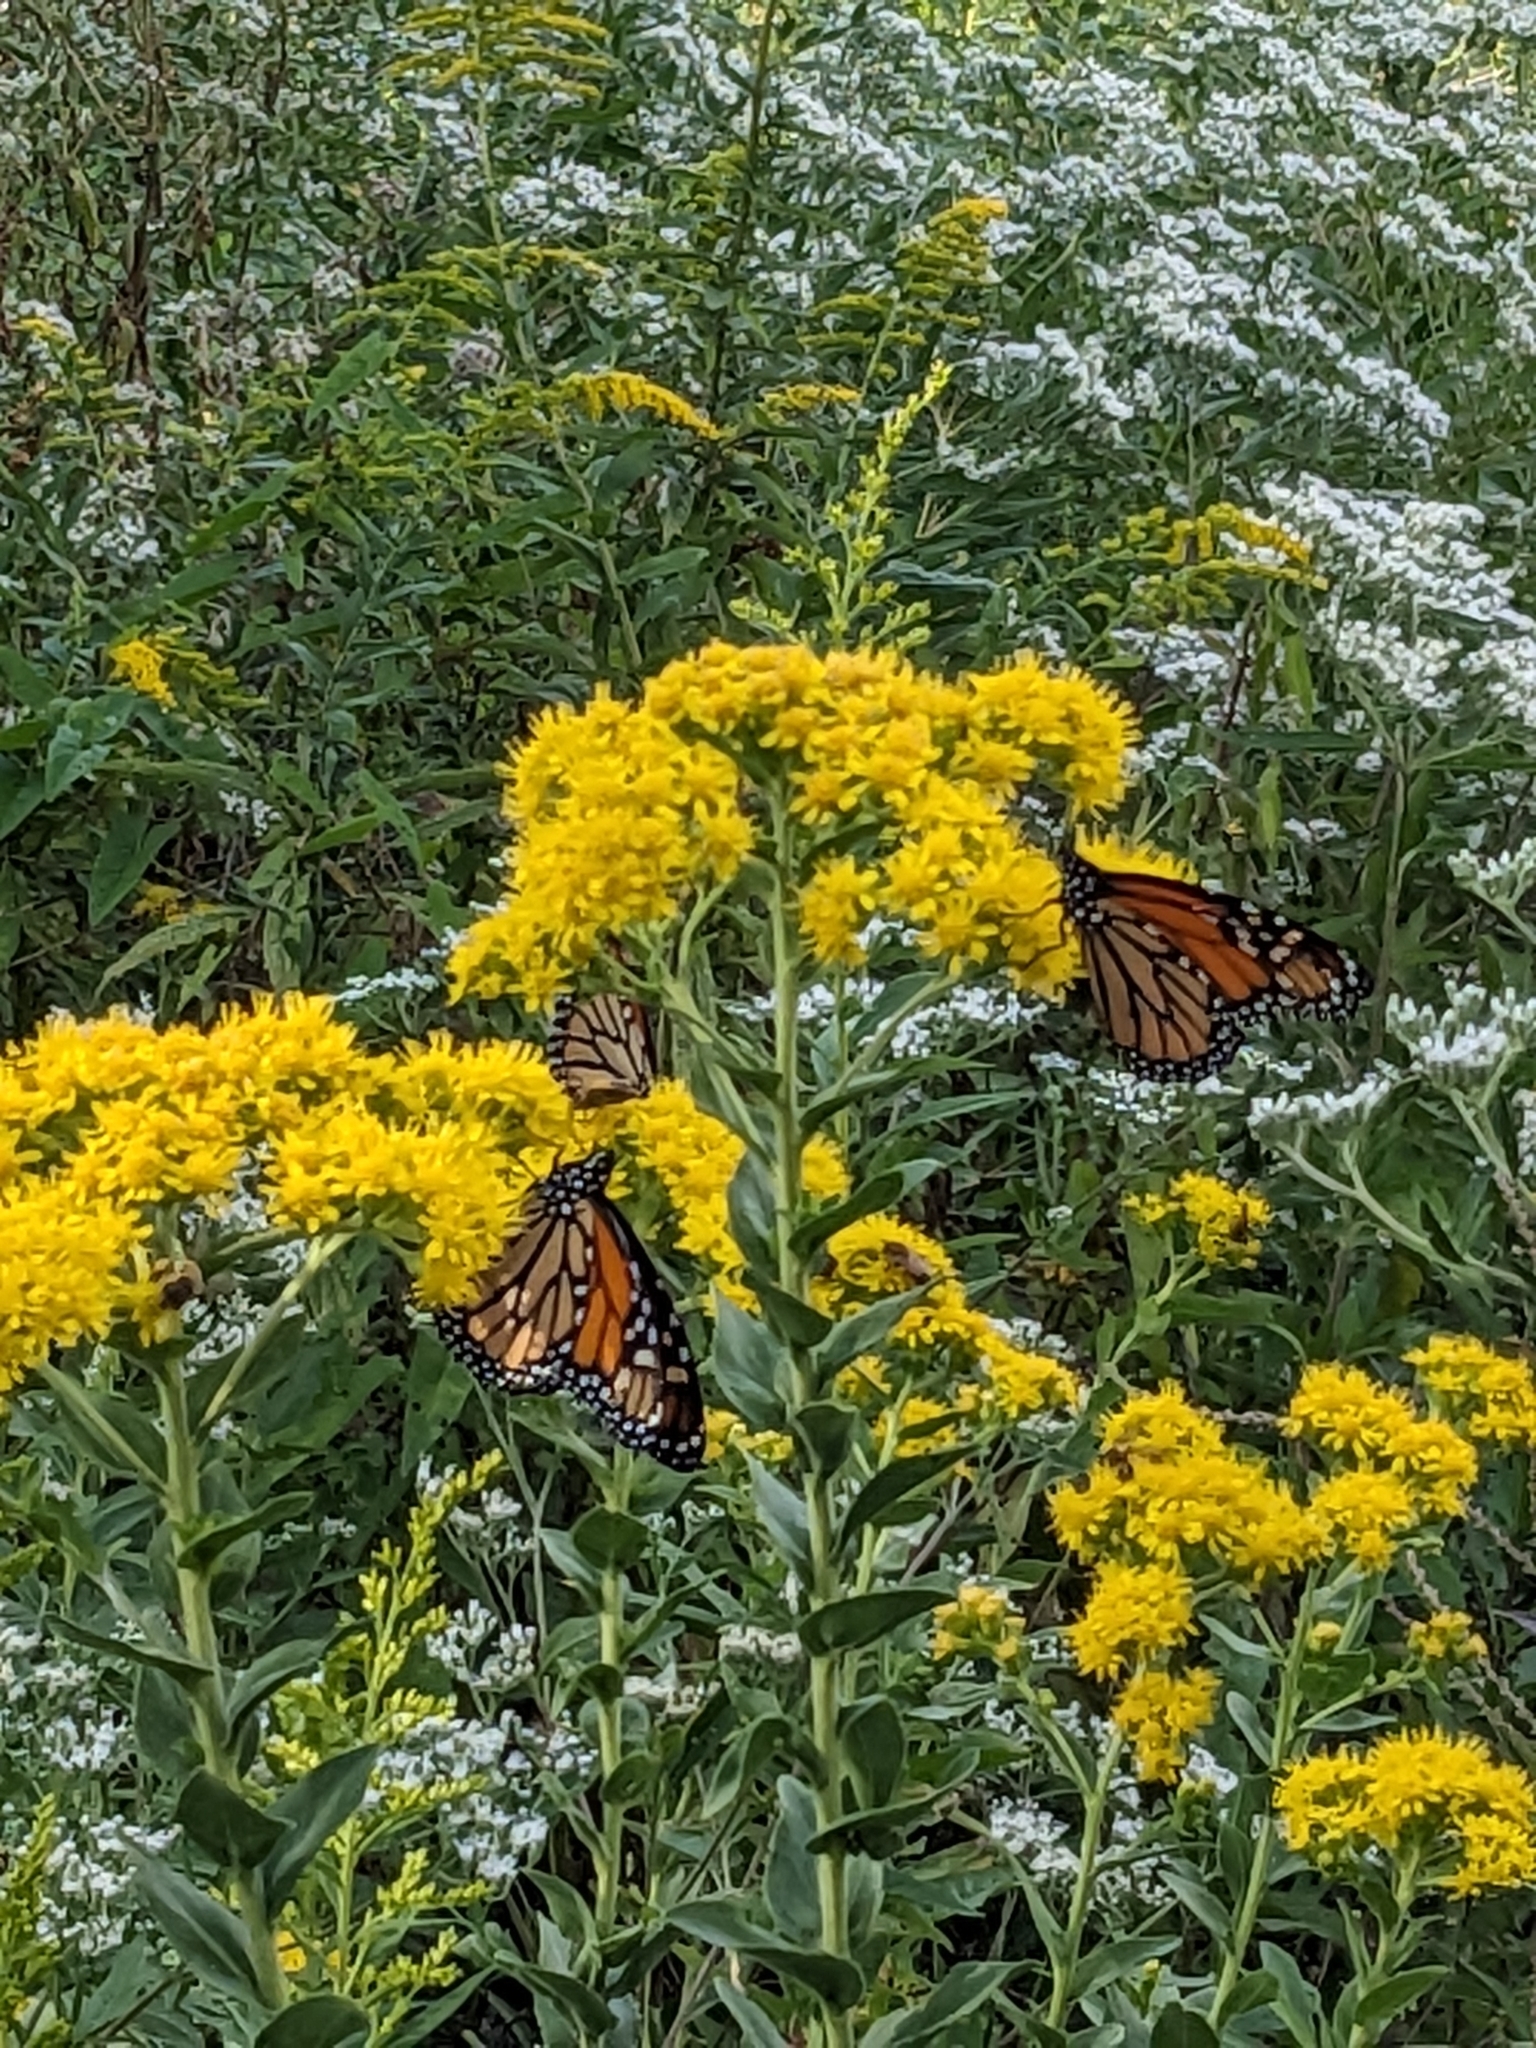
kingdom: Animalia
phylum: Arthropoda
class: Insecta
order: Lepidoptera
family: Nymphalidae
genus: Danaus
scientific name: Danaus plexippus
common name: Monarch
